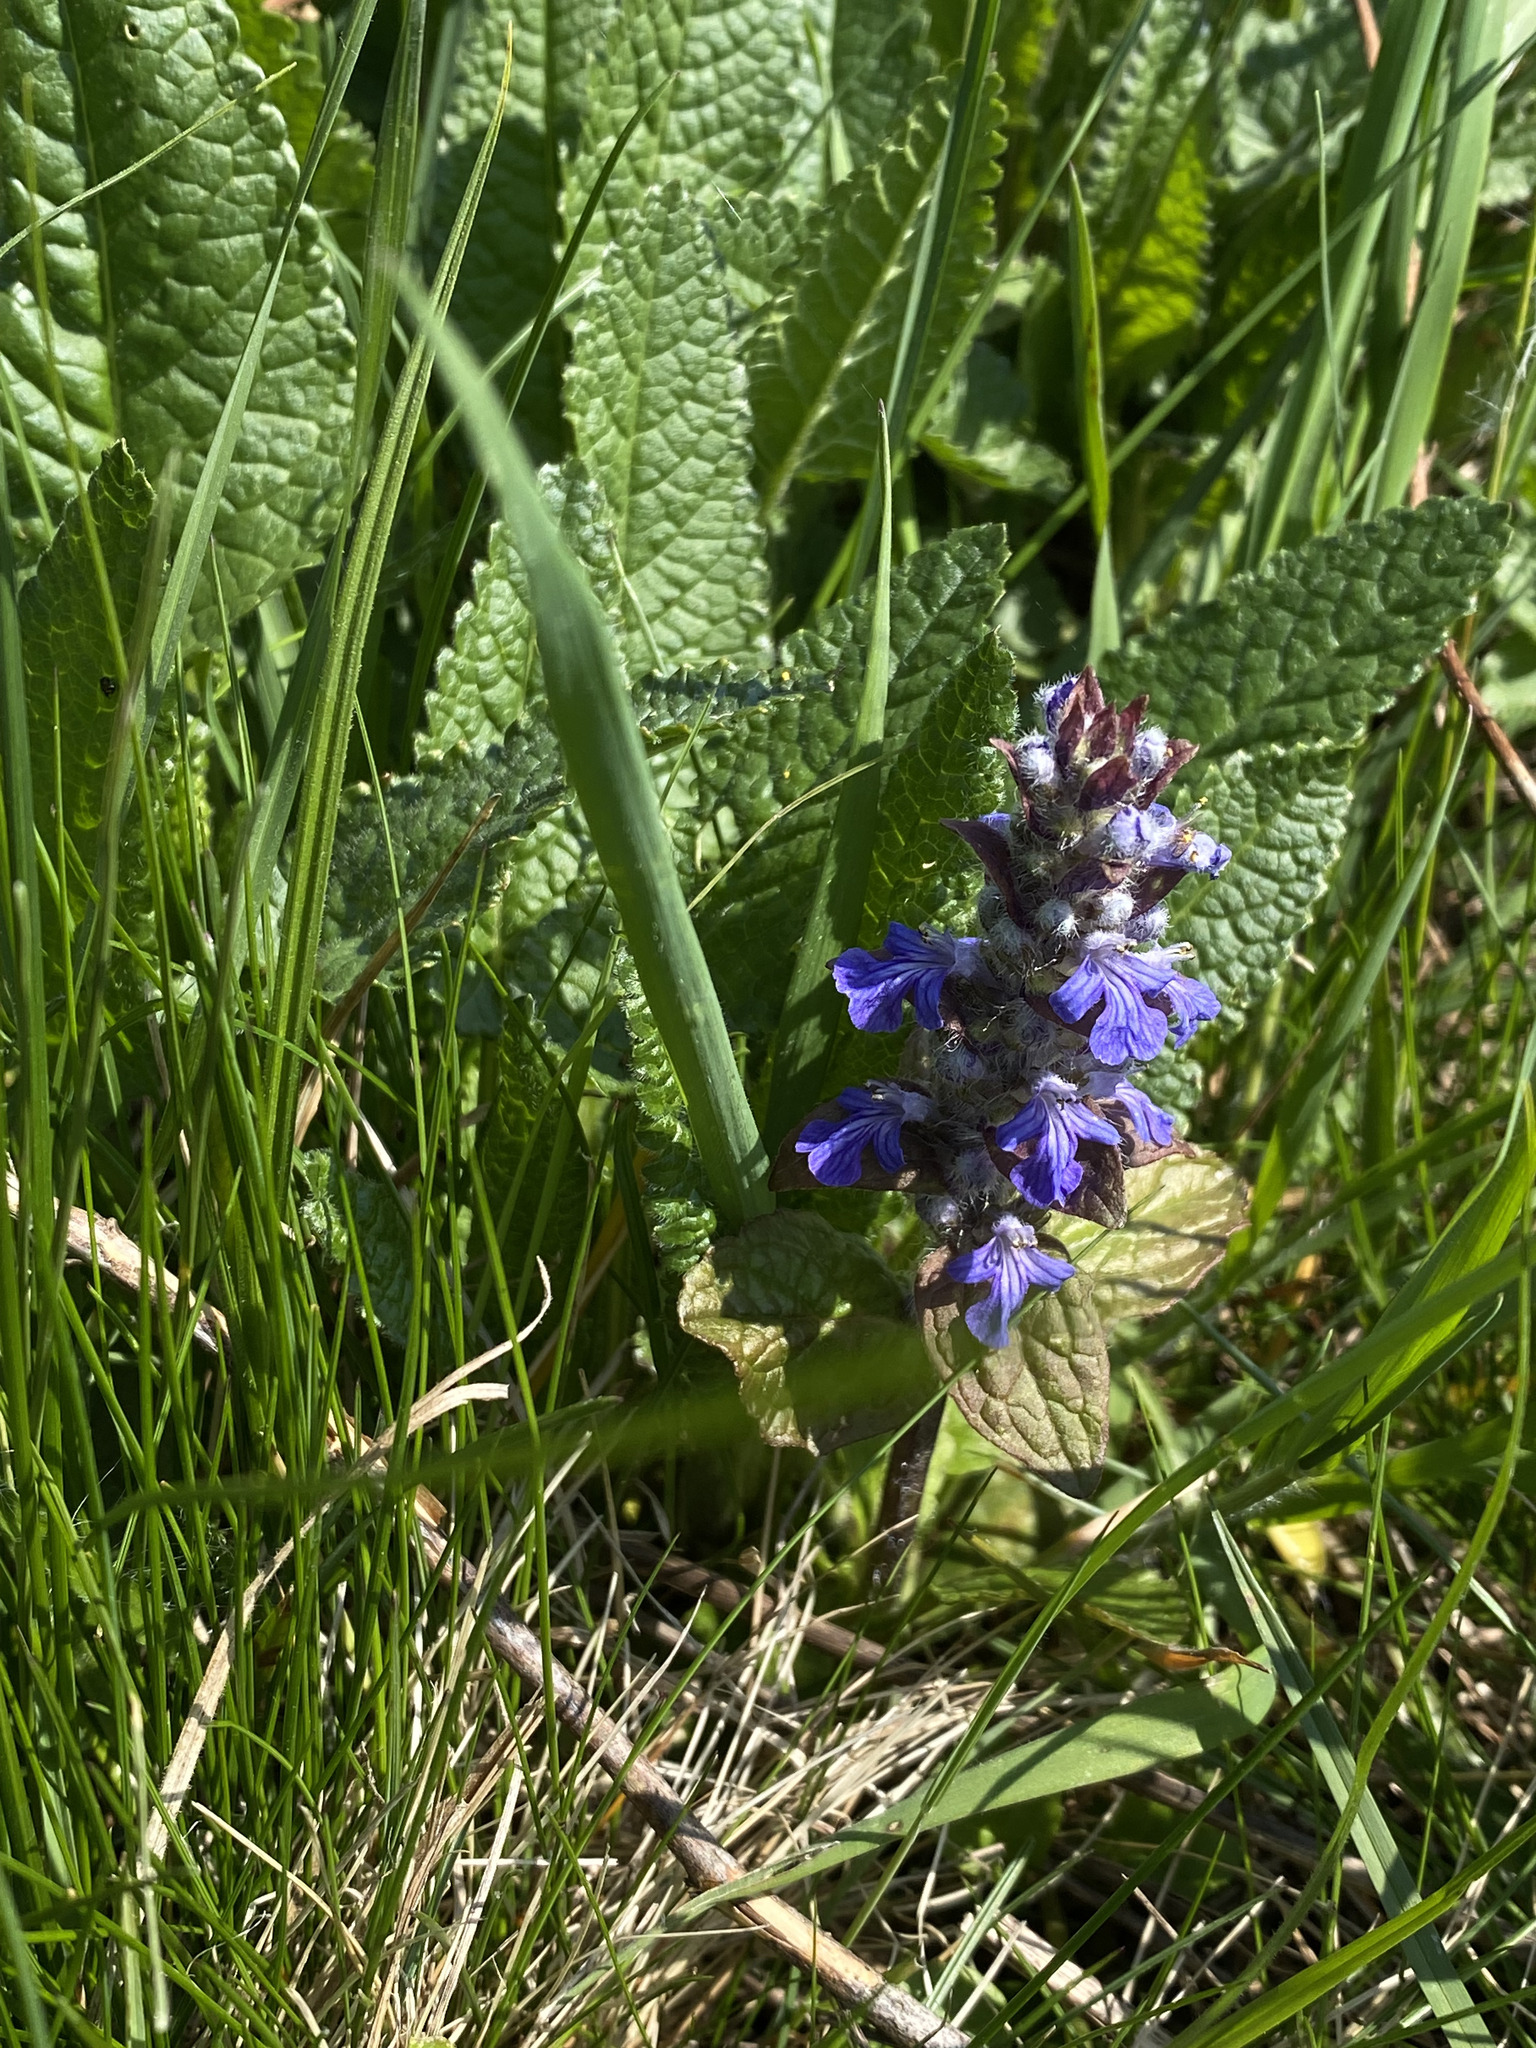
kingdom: Plantae
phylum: Tracheophyta
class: Magnoliopsida
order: Lamiales
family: Lamiaceae
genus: Ajuga
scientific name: Ajuga reptans
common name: Bugle
